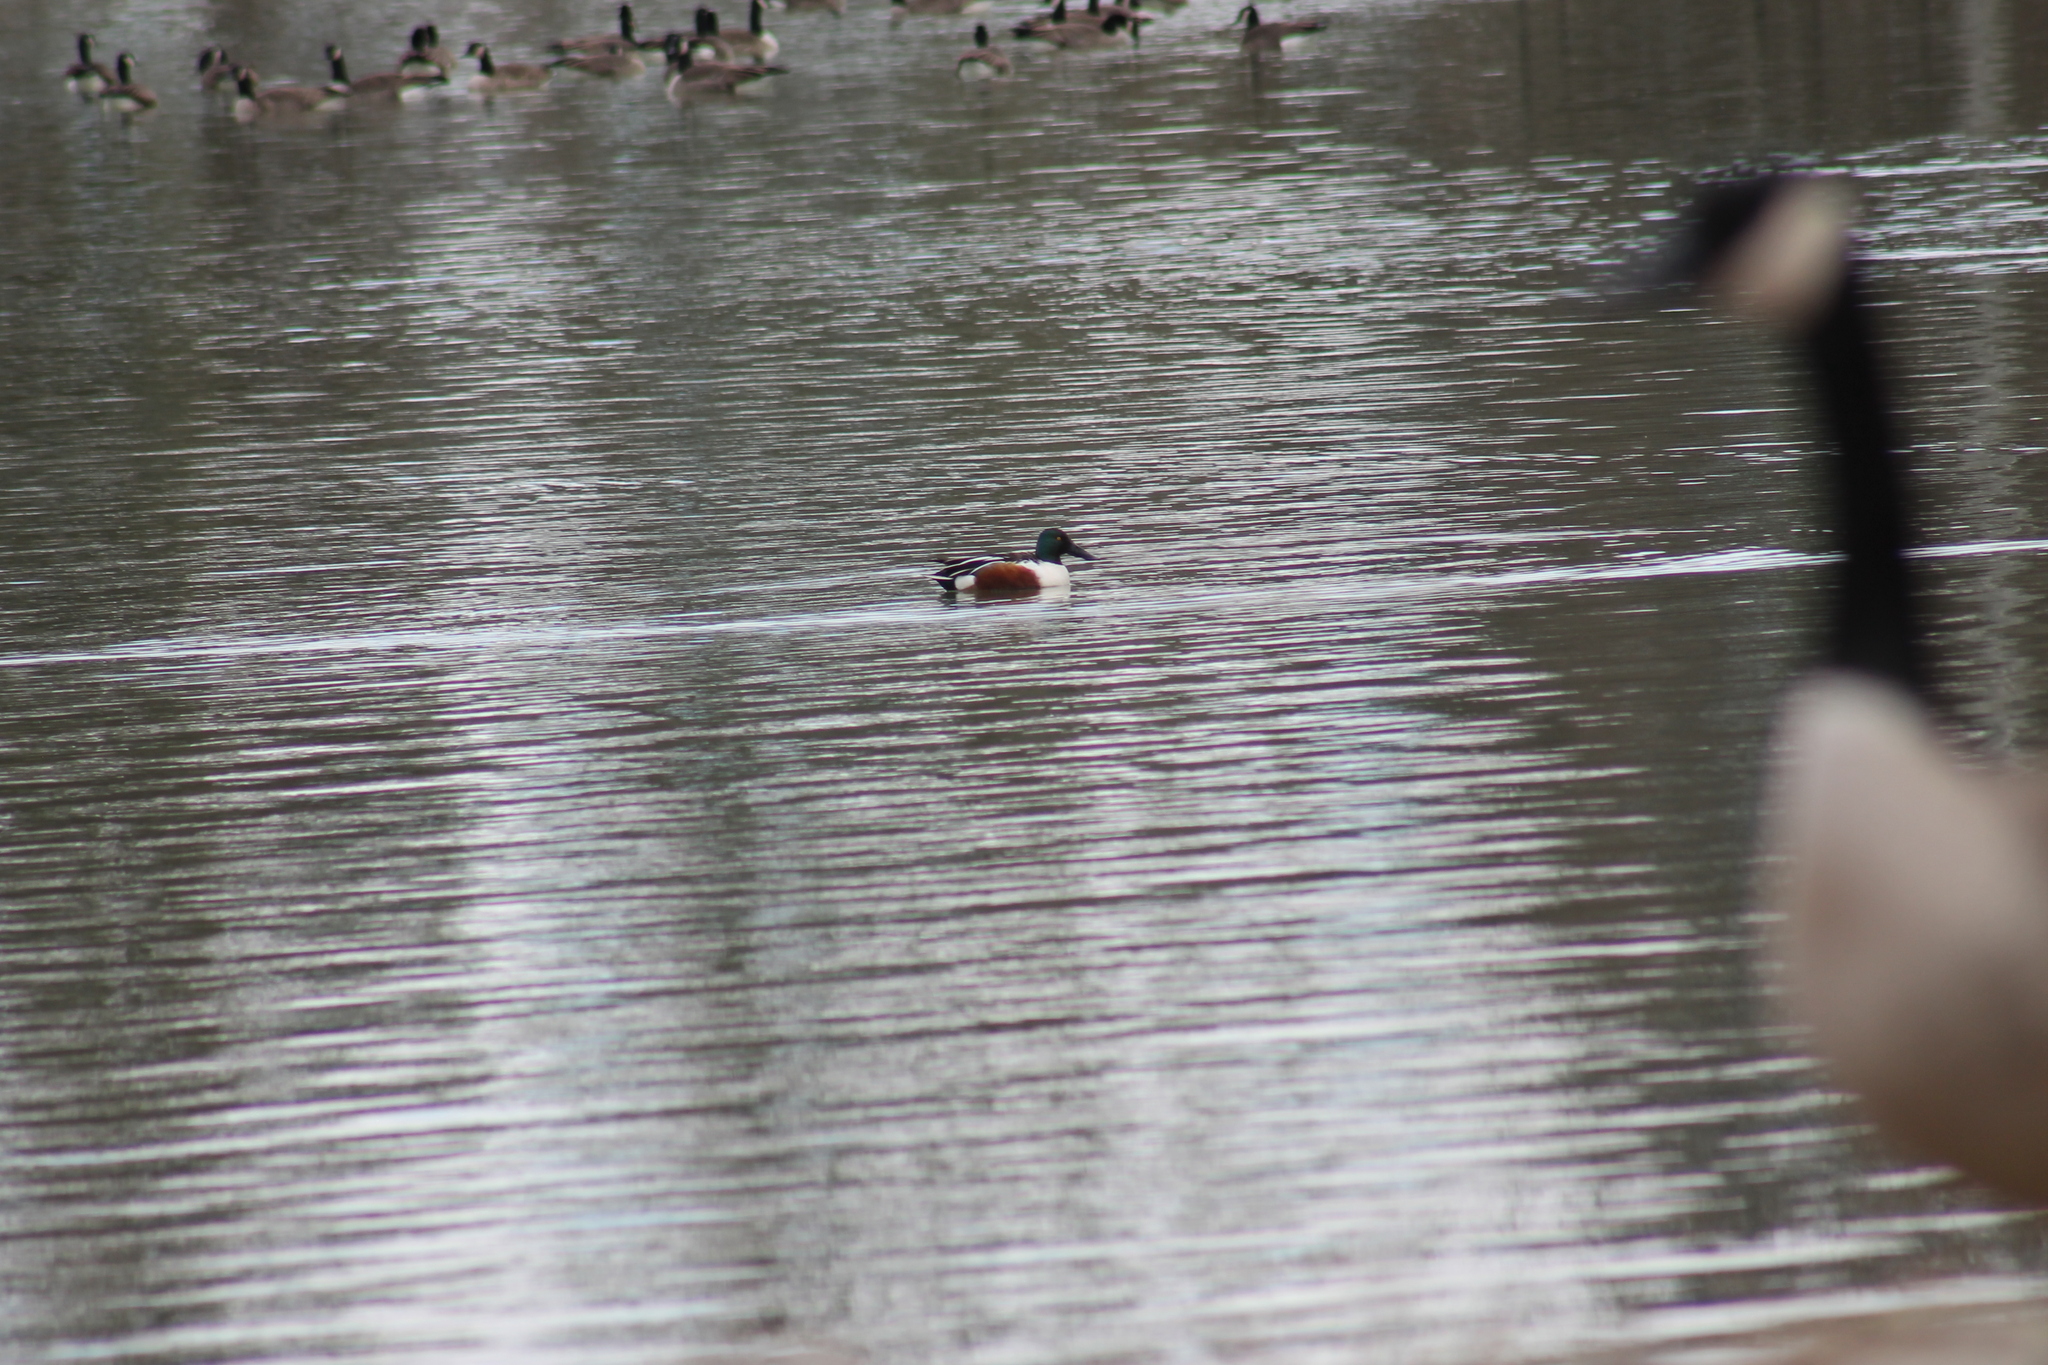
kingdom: Animalia
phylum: Chordata
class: Aves
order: Anseriformes
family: Anatidae
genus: Spatula
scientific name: Spatula clypeata
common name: Northern shoveler
